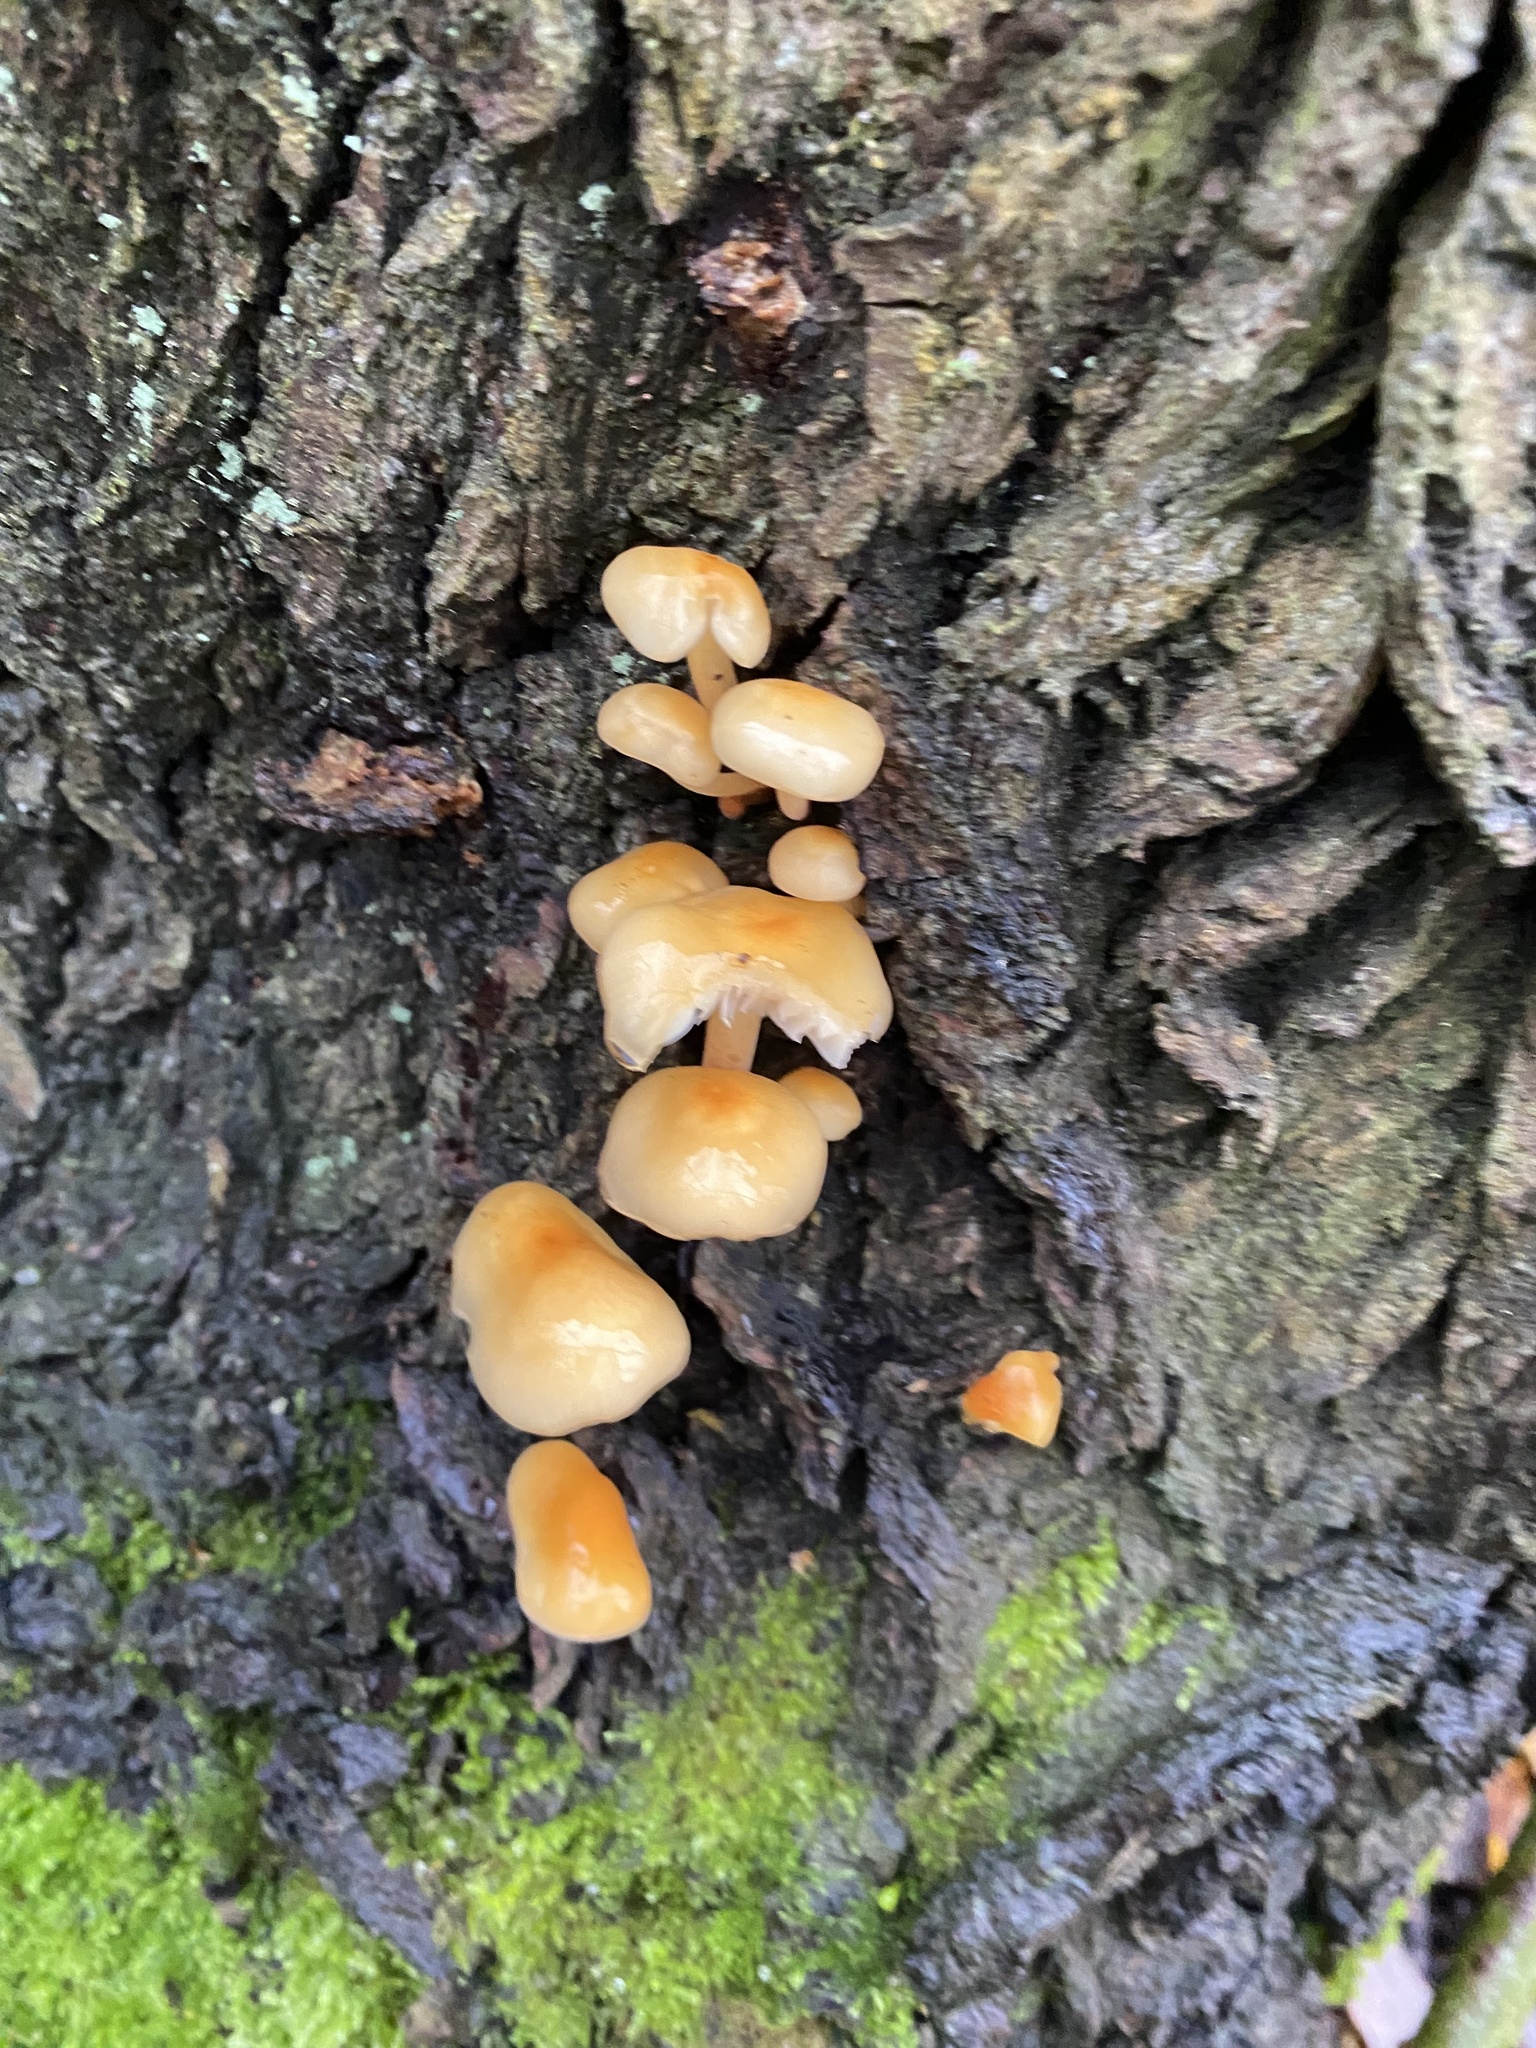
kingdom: Fungi
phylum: Basidiomycota
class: Agaricomycetes
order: Agaricales
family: Physalacriaceae
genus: Flammulina
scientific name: Flammulina
